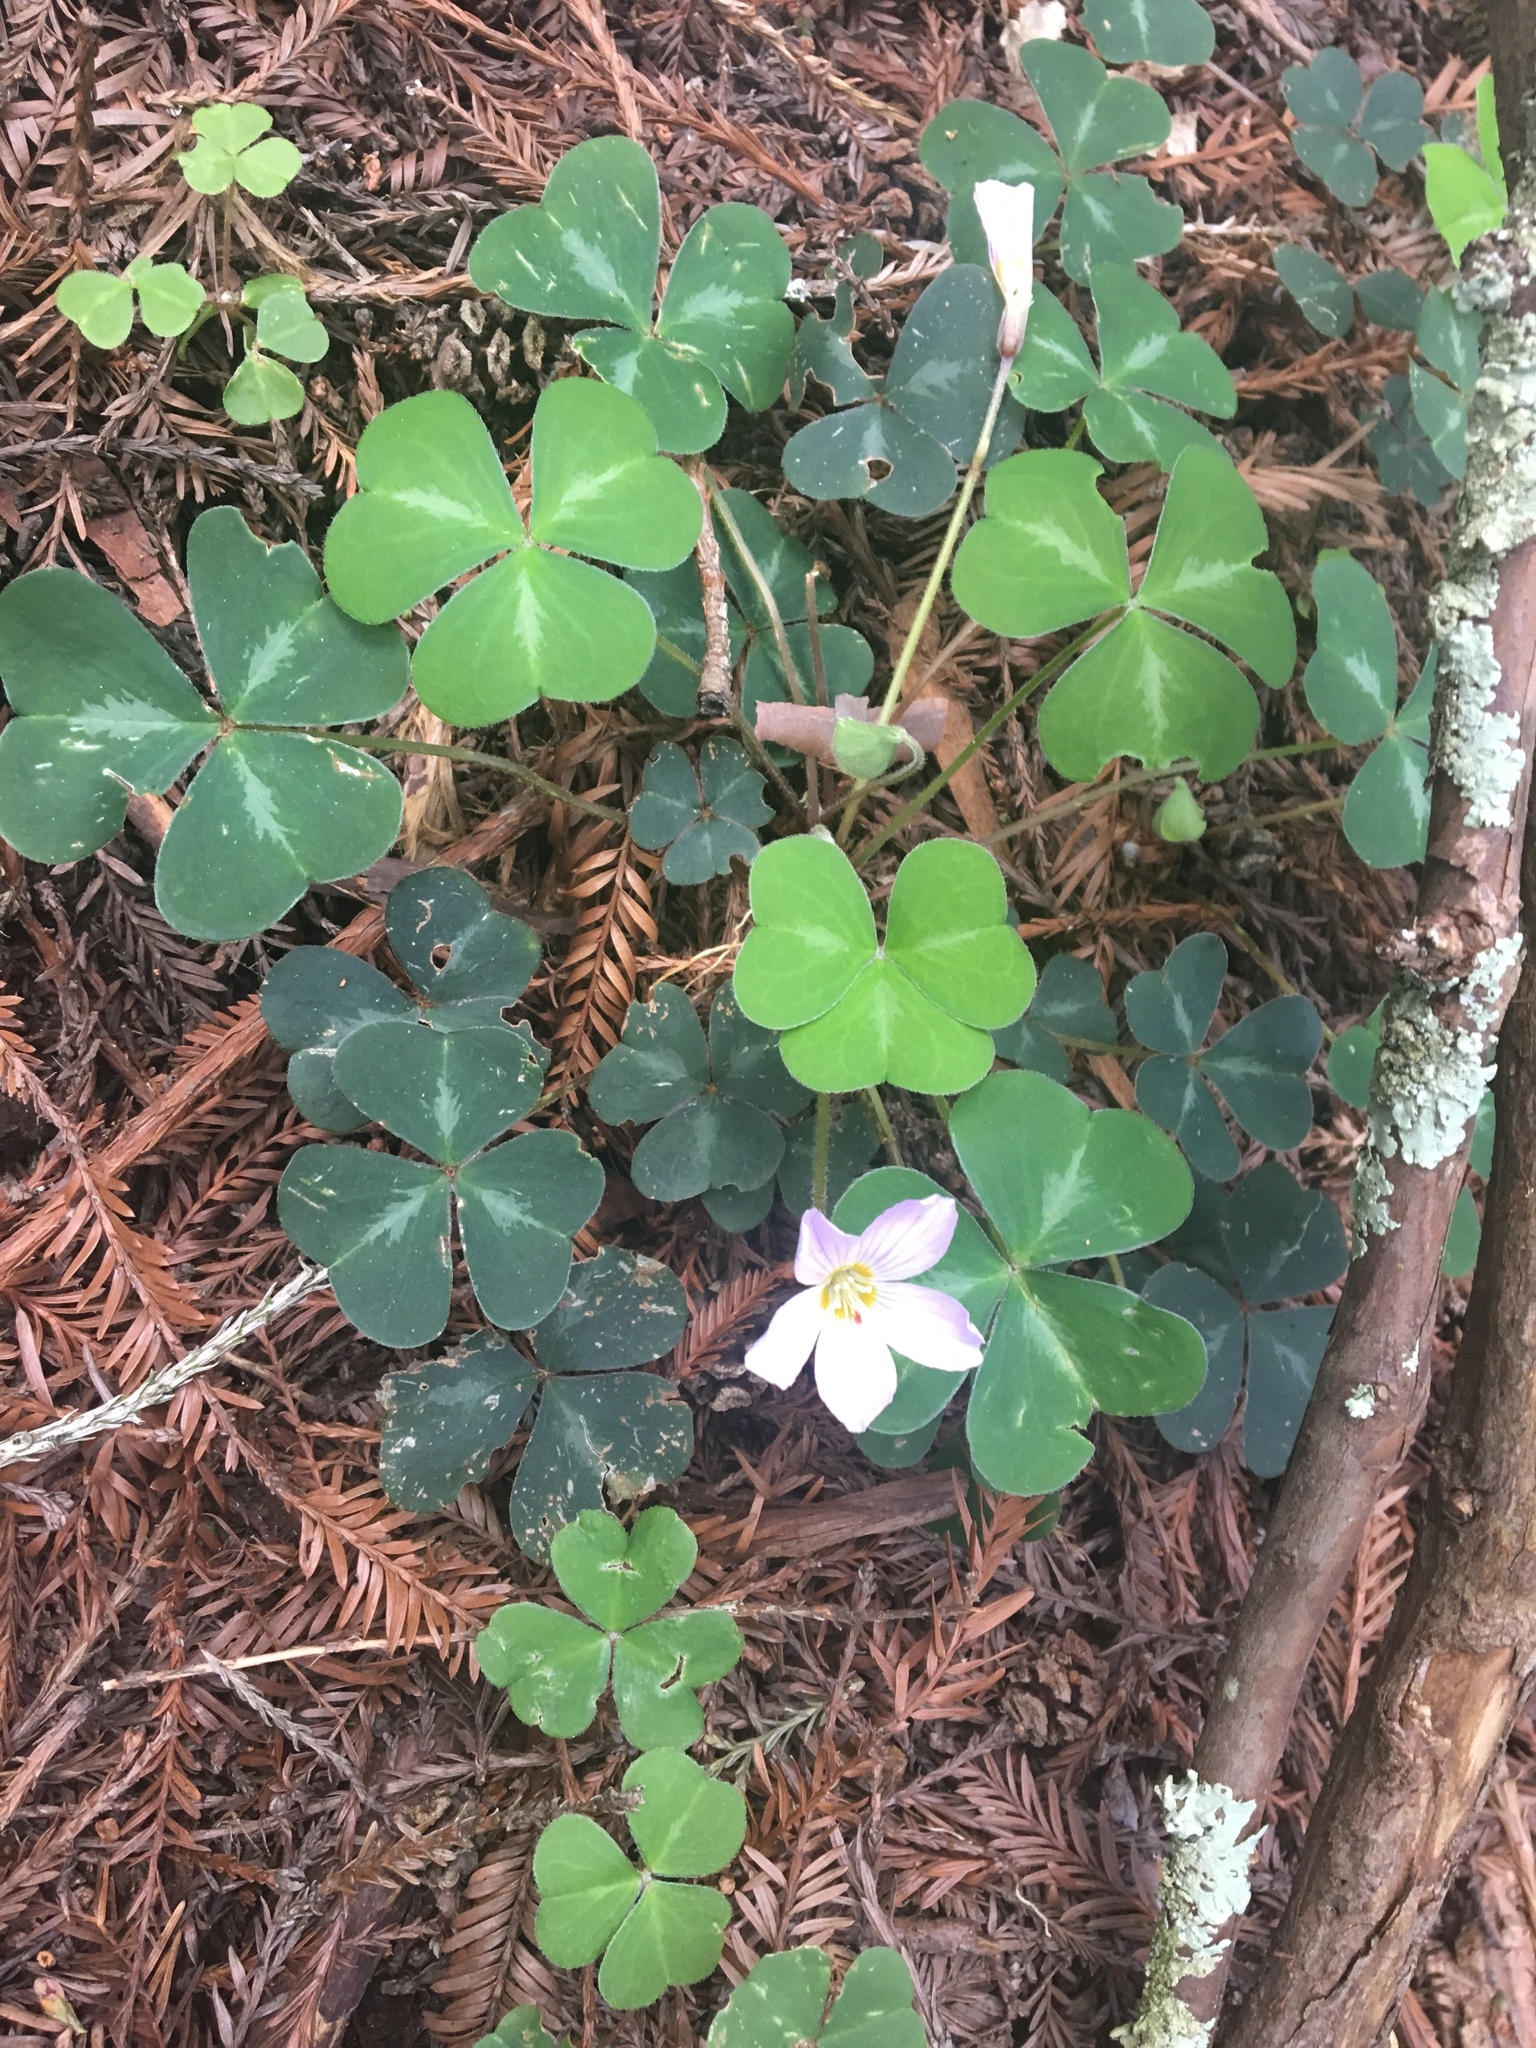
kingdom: Plantae
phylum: Tracheophyta
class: Magnoliopsida
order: Oxalidales
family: Oxalidaceae
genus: Oxalis
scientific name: Oxalis oregana
